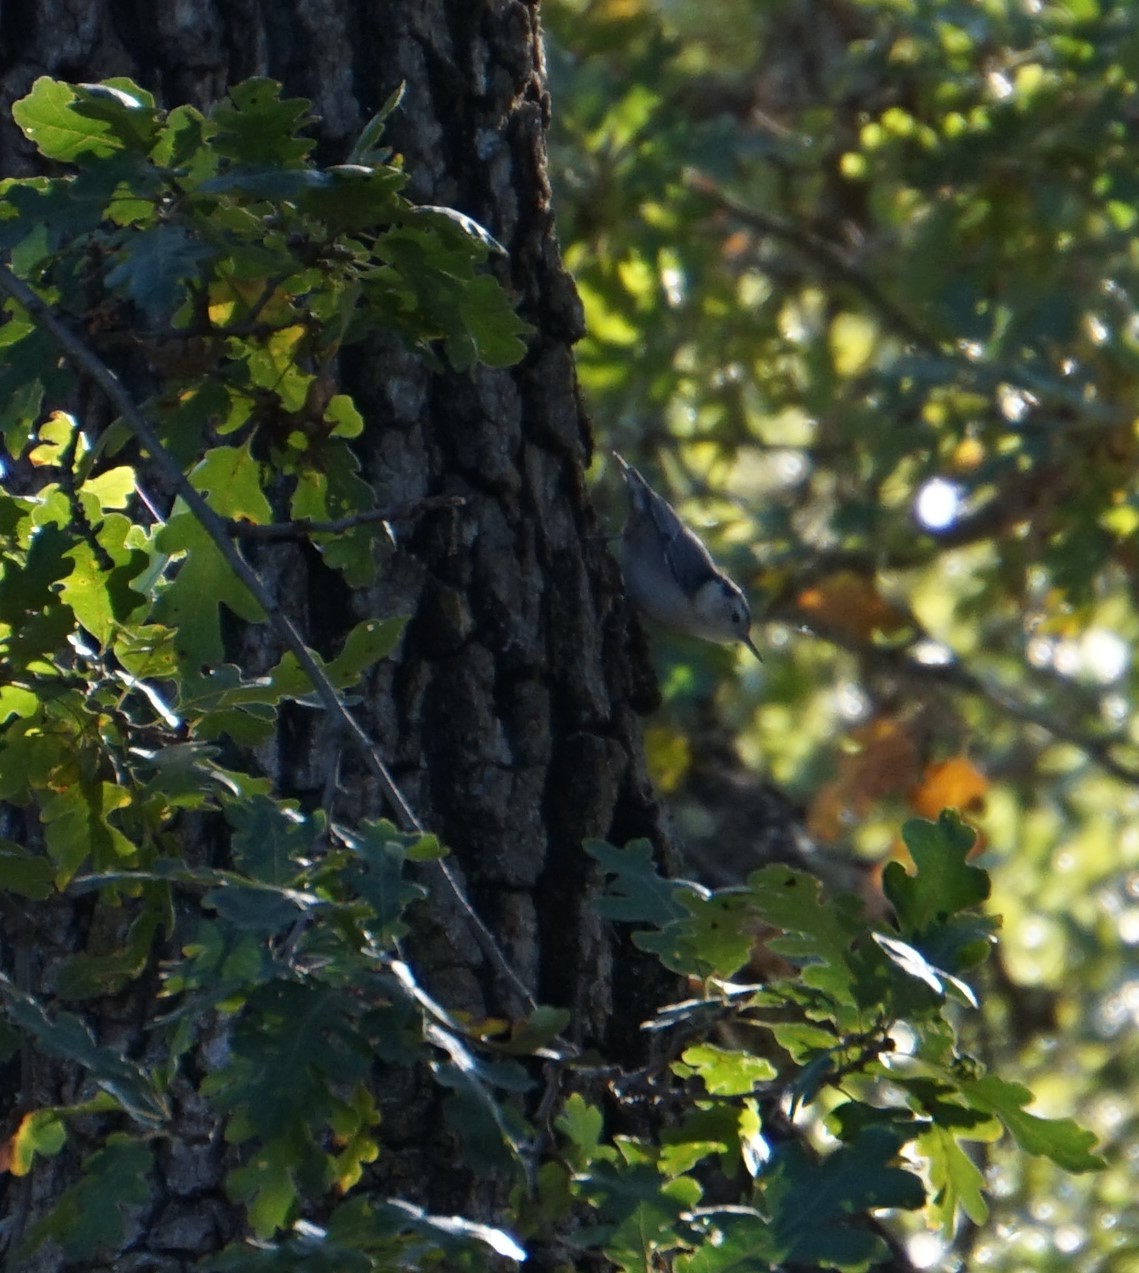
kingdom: Animalia
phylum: Chordata
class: Aves
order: Passeriformes
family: Sittidae
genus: Sitta
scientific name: Sitta carolinensis
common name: White-breasted nuthatch
